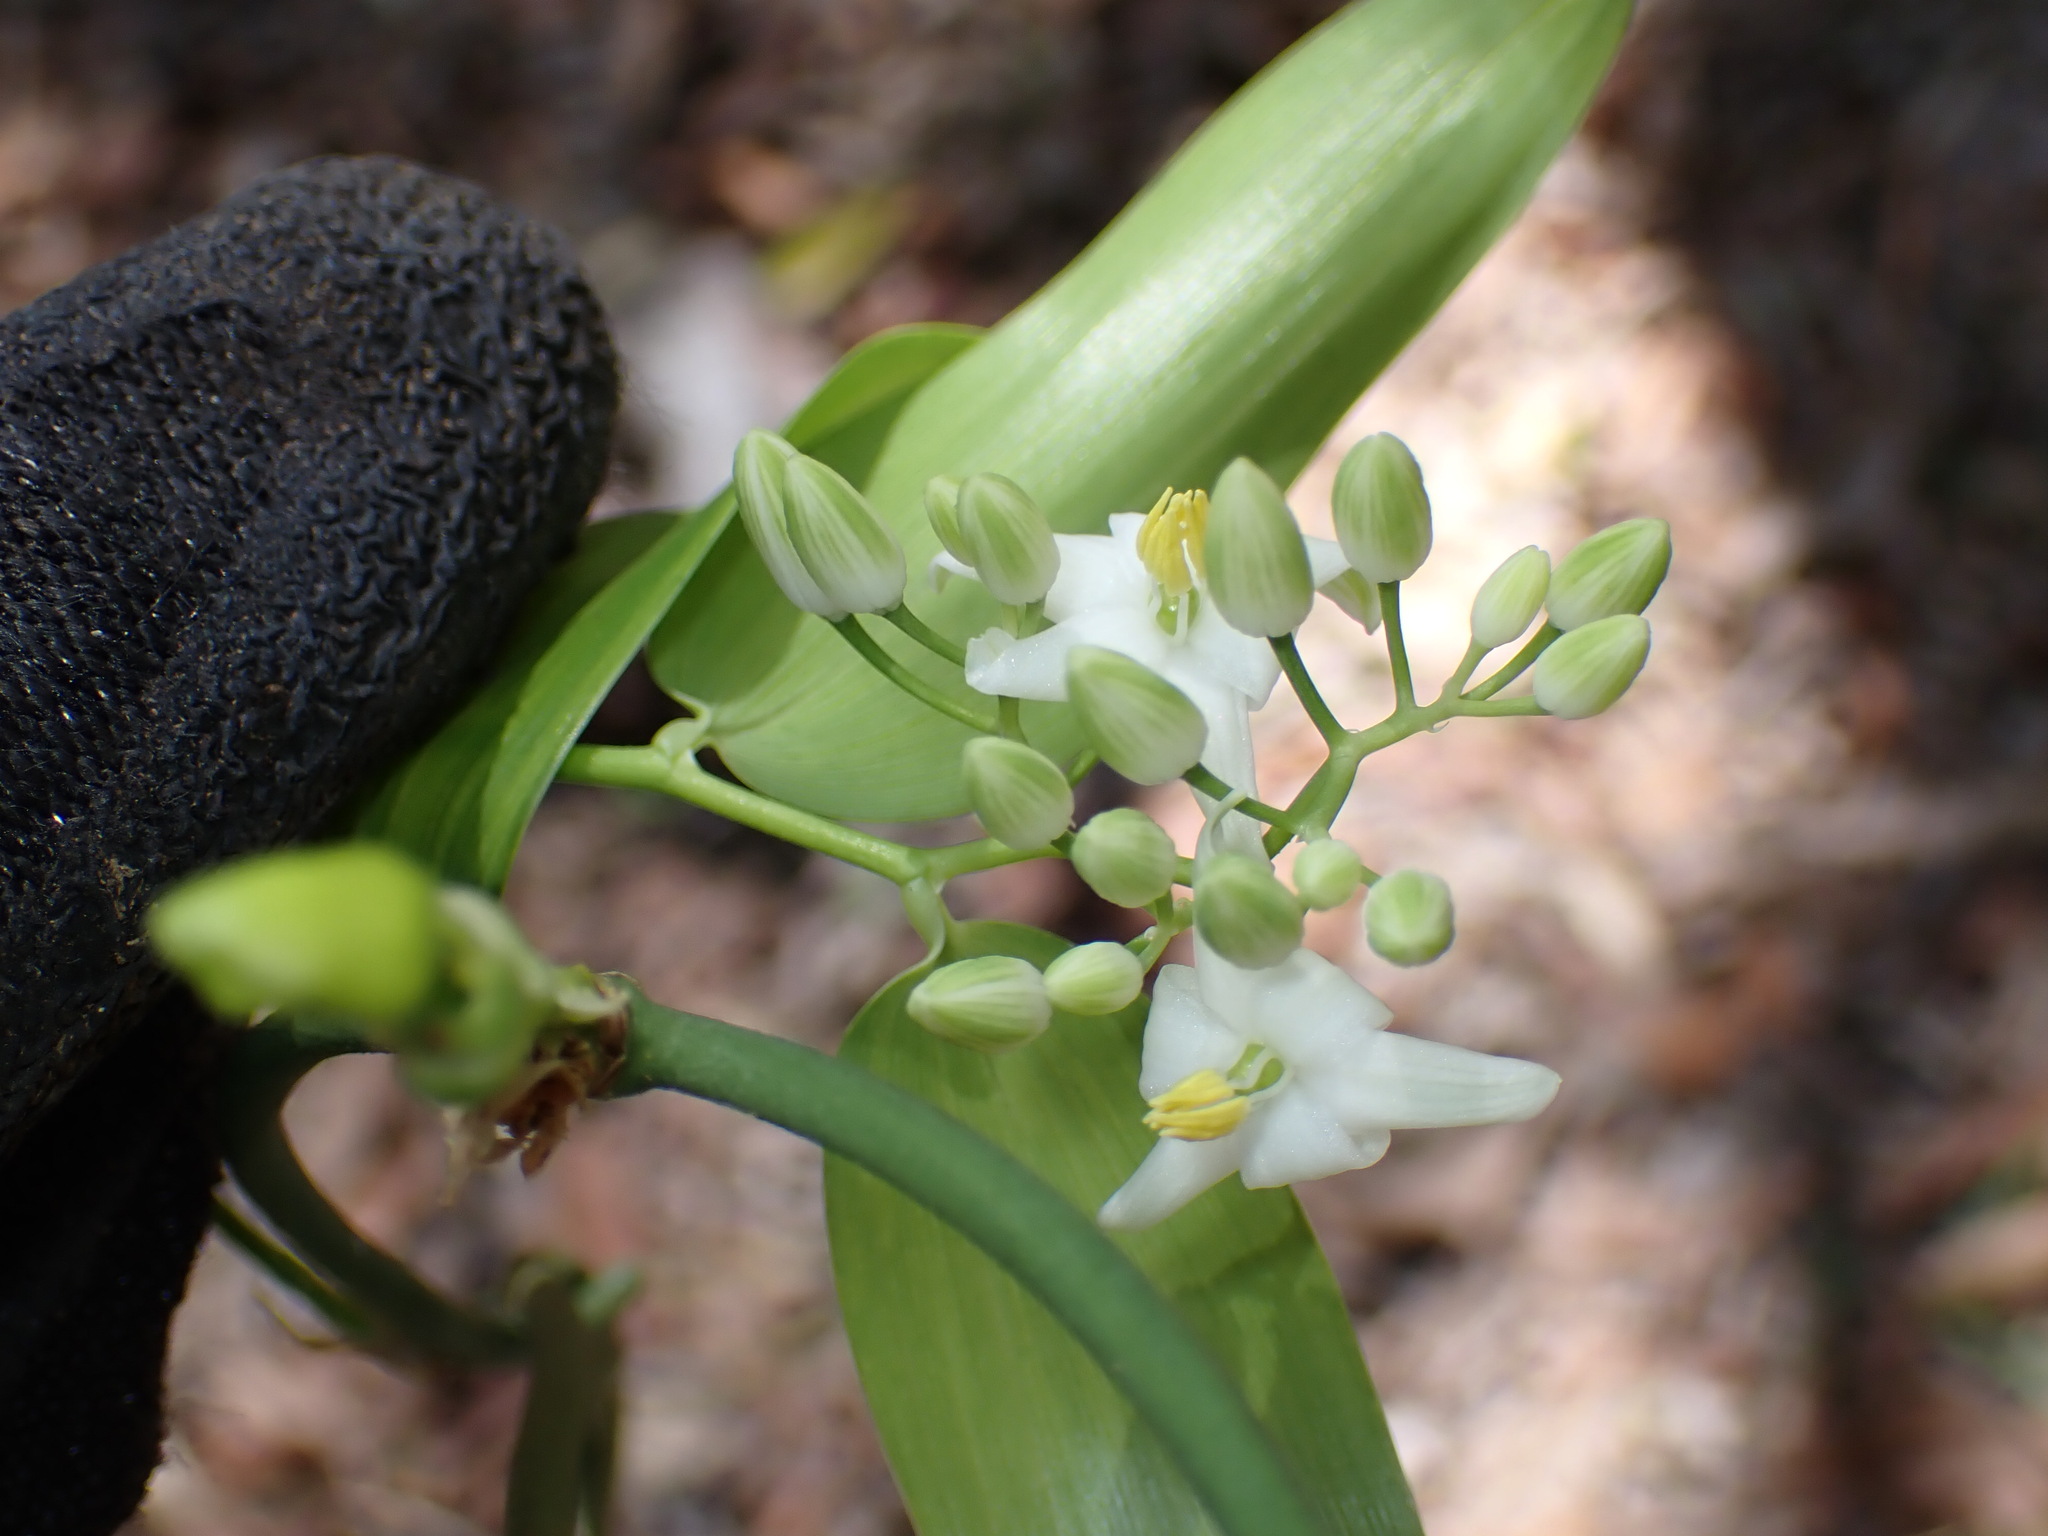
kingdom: Plantae
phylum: Tracheophyta
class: Liliopsida
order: Asparagales
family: Asphodelaceae
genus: Geitonoplesium
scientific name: Geitonoplesium cymosum
